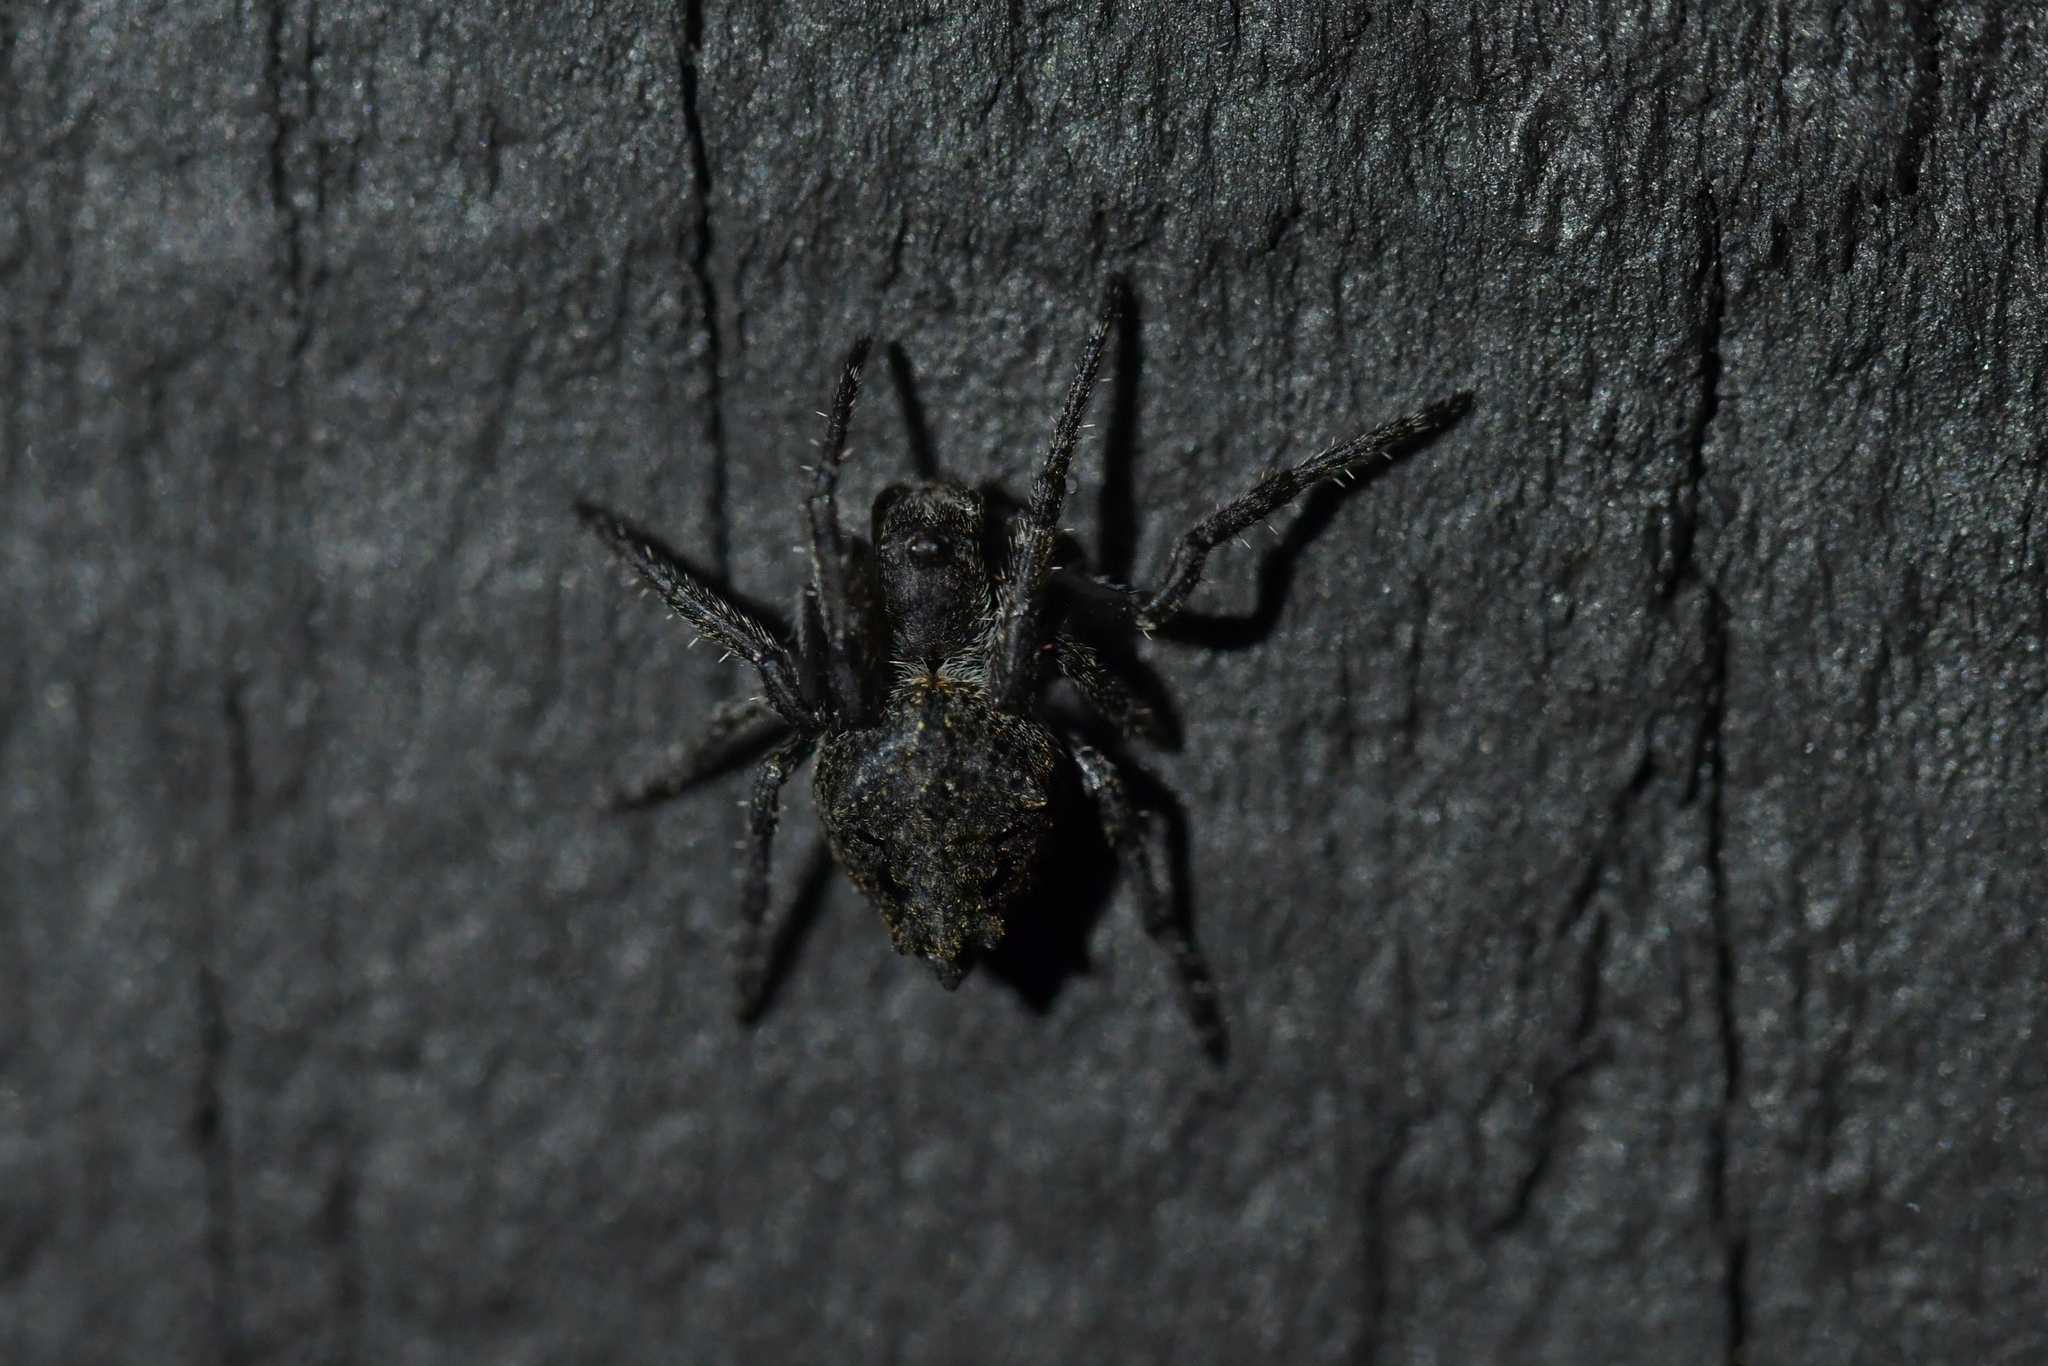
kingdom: Animalia
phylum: Arthropoda
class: Arachnida
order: Araneae
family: Araneidae
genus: Eriophora
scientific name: Eriophora pustulosa
